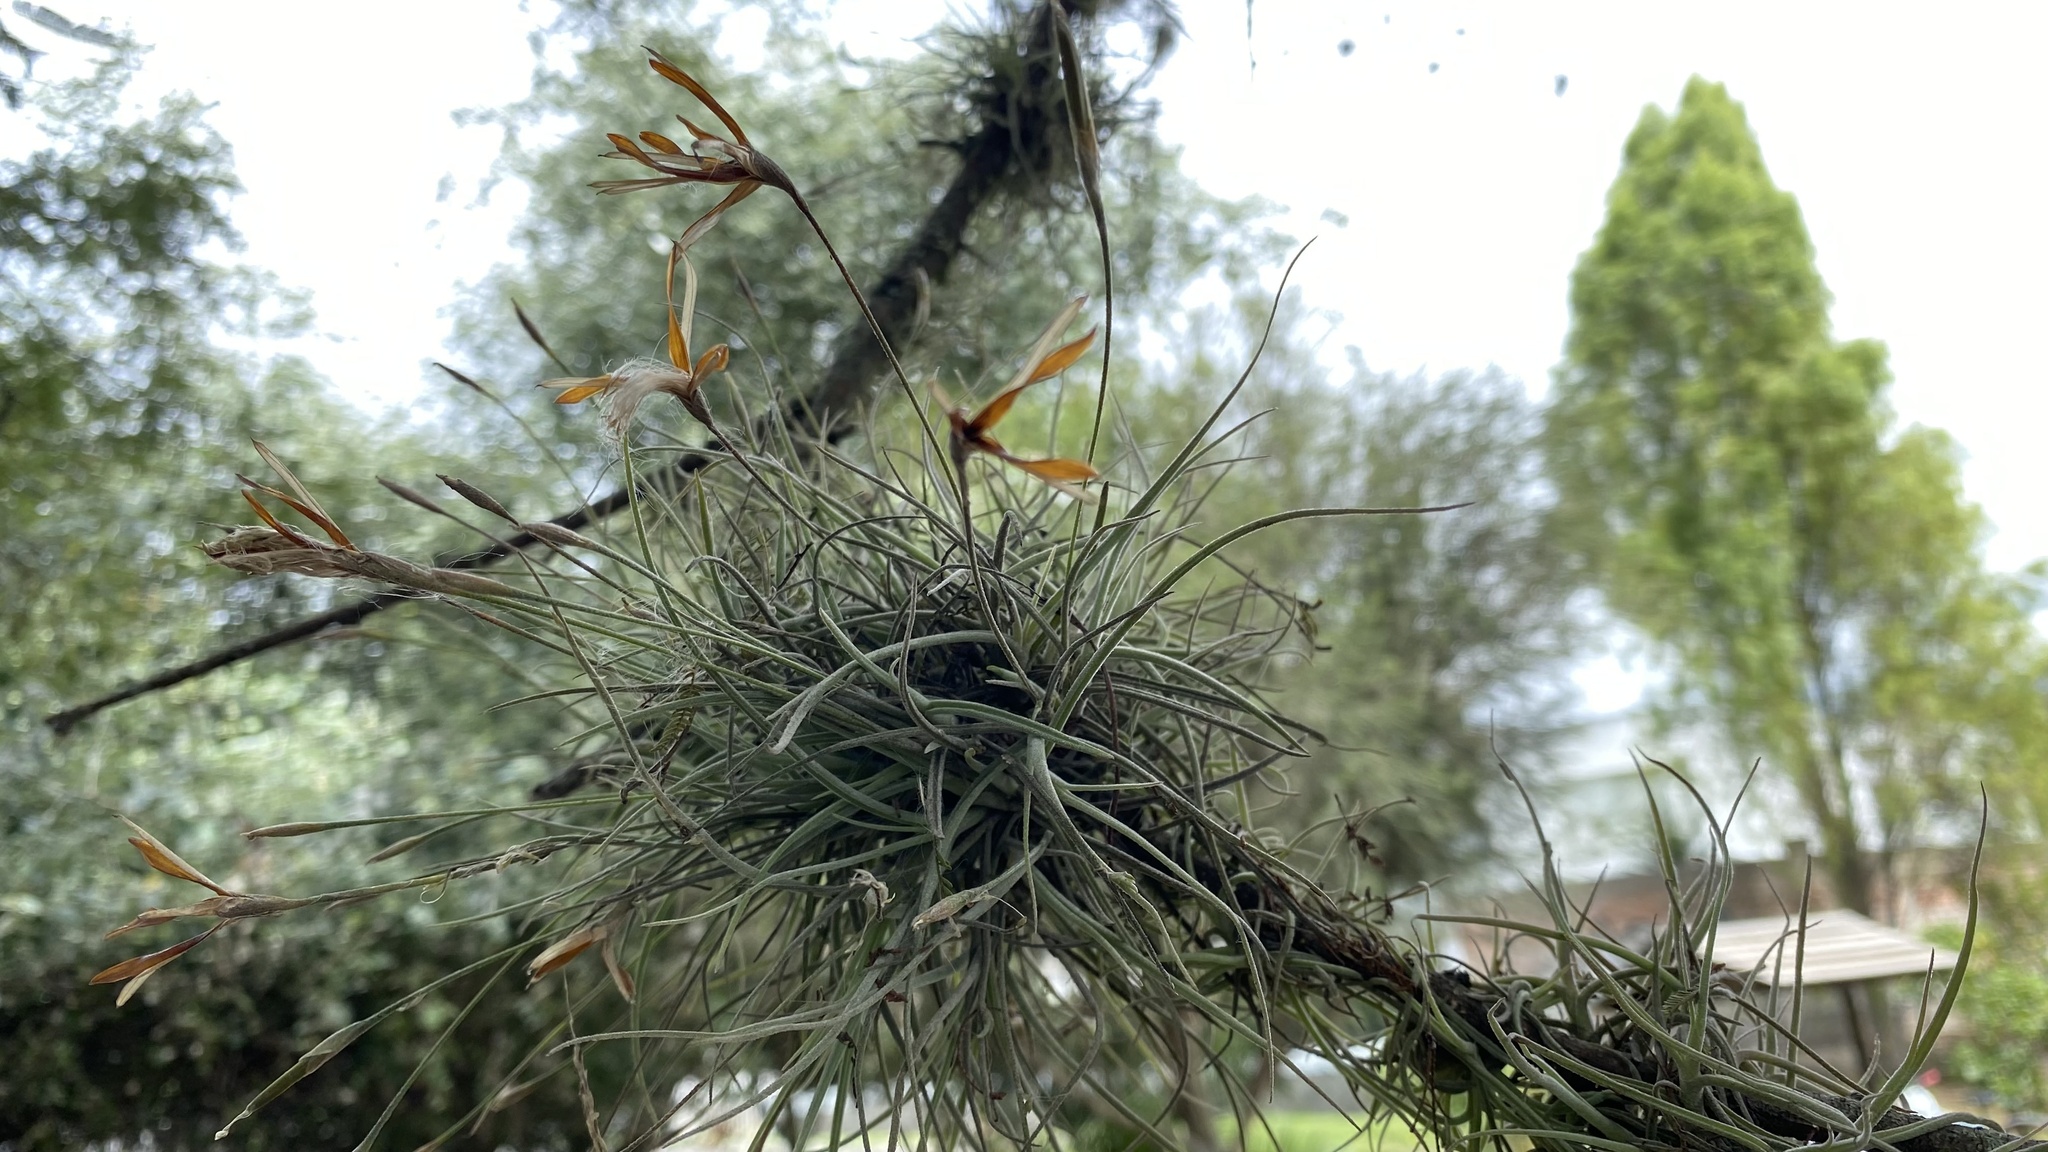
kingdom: Plantae
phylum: Tracheophyta
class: Liliopsida
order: Poales
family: Bromeliaceae
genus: Tillandsia
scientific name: Tillandsia recurvata
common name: Small ballmoss
